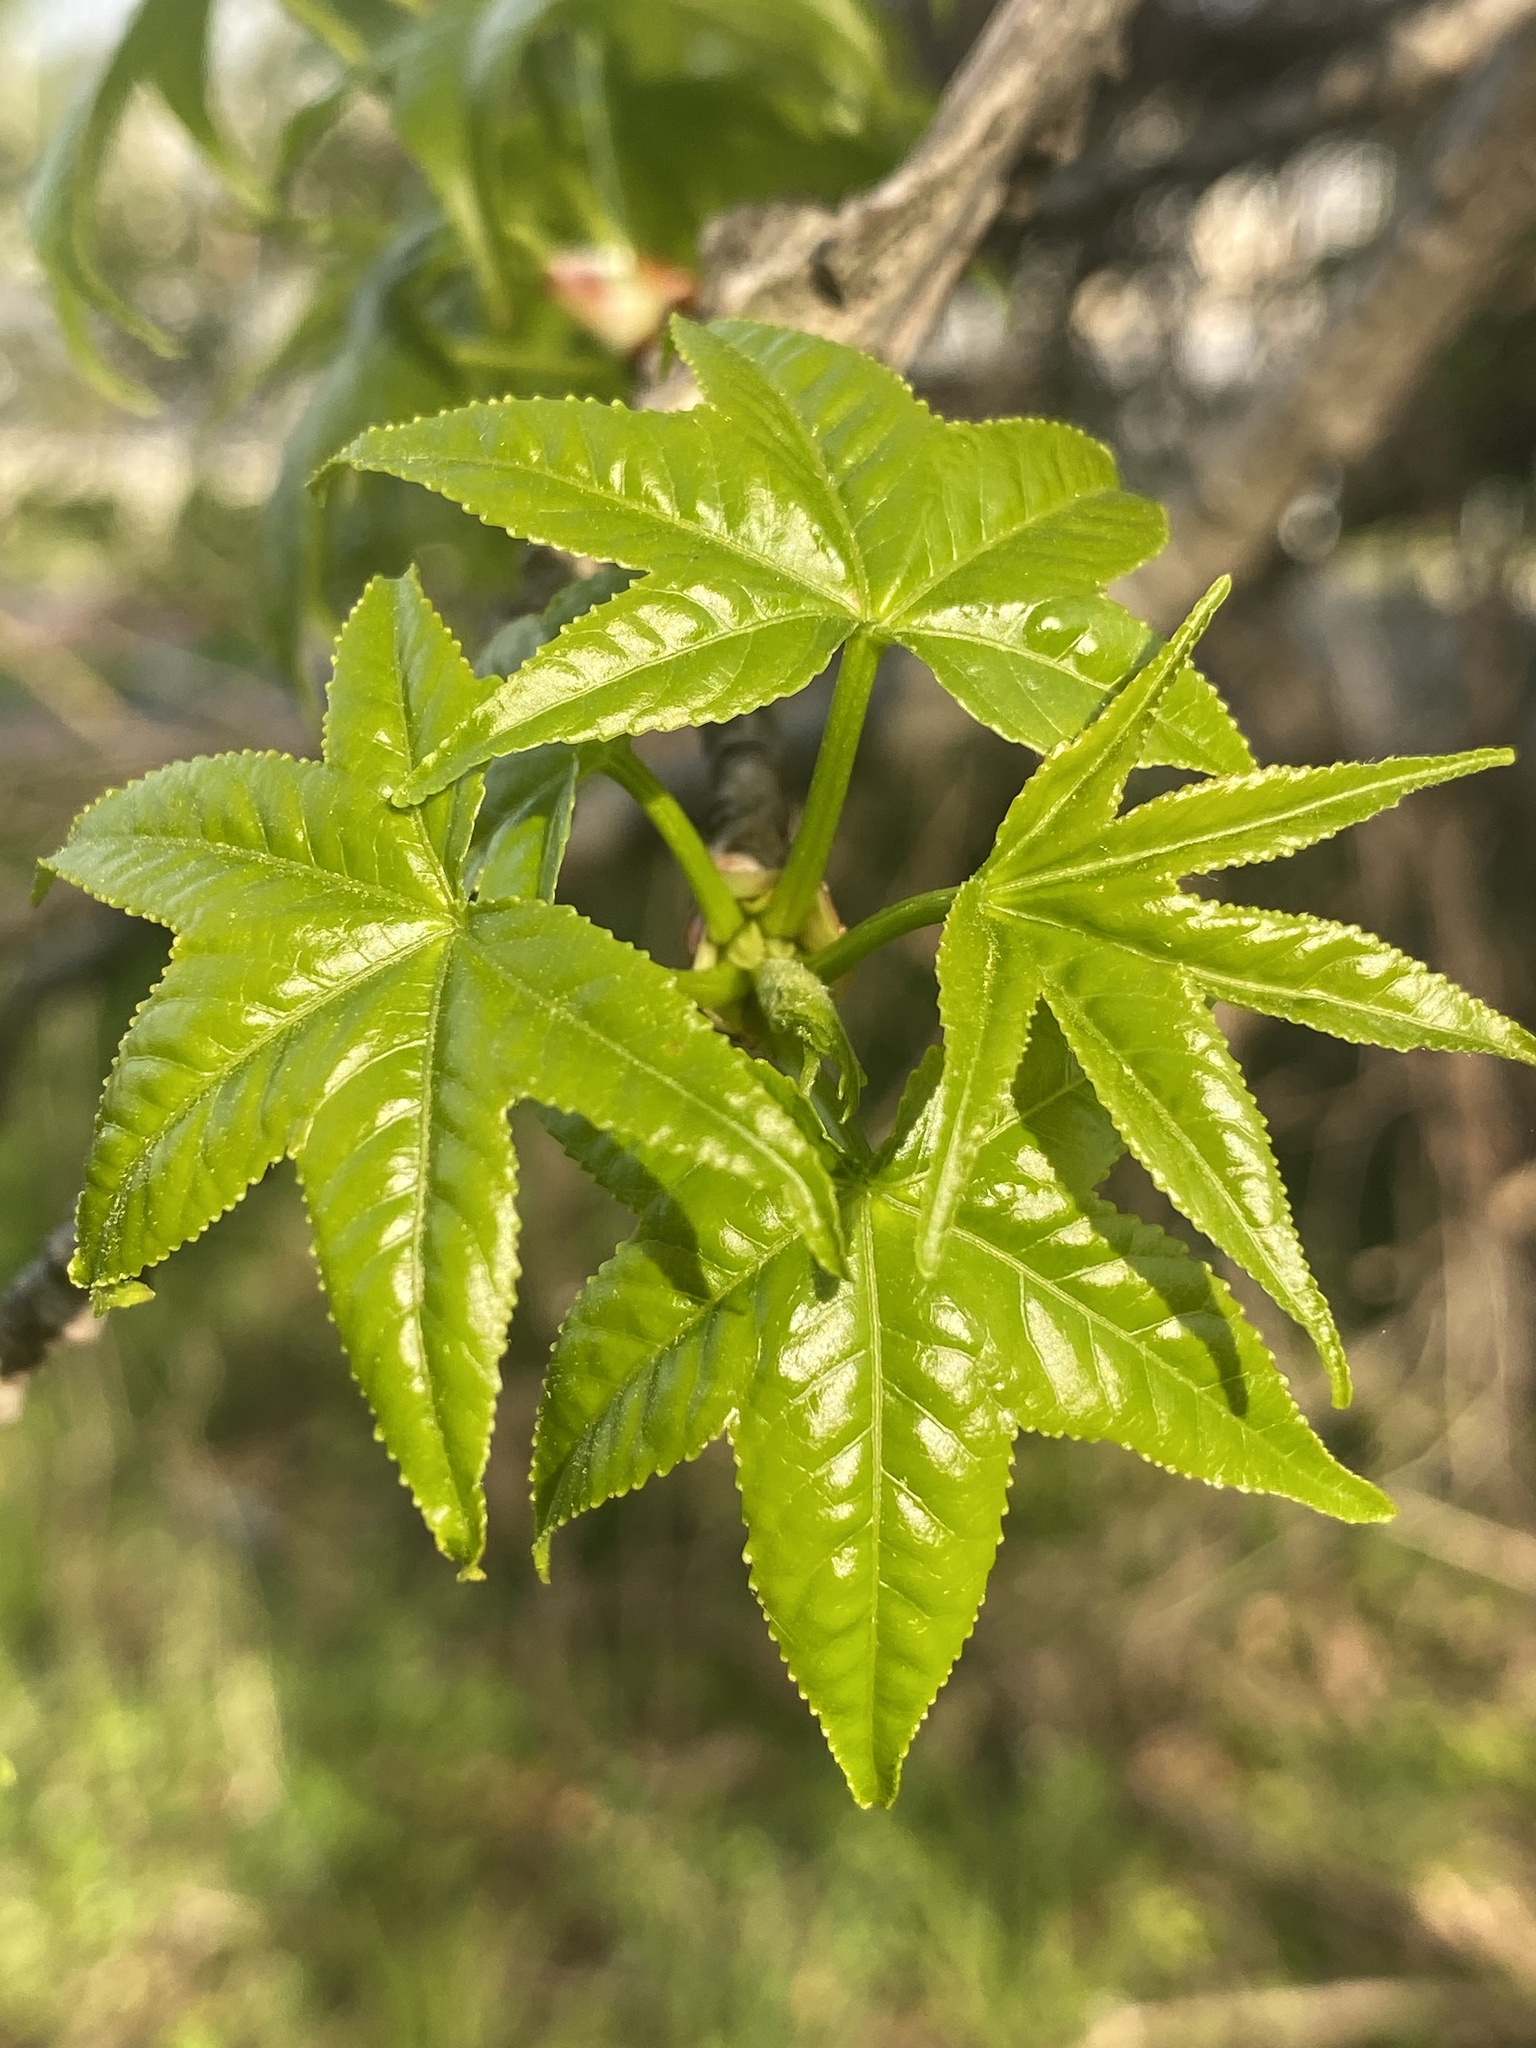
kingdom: Plantae
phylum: Tracheophyta
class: Magnoliopsida
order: Saxifragales
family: Altingiaceae
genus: Liquidambar
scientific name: Liquidambar styraciflua
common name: Sweet gum
